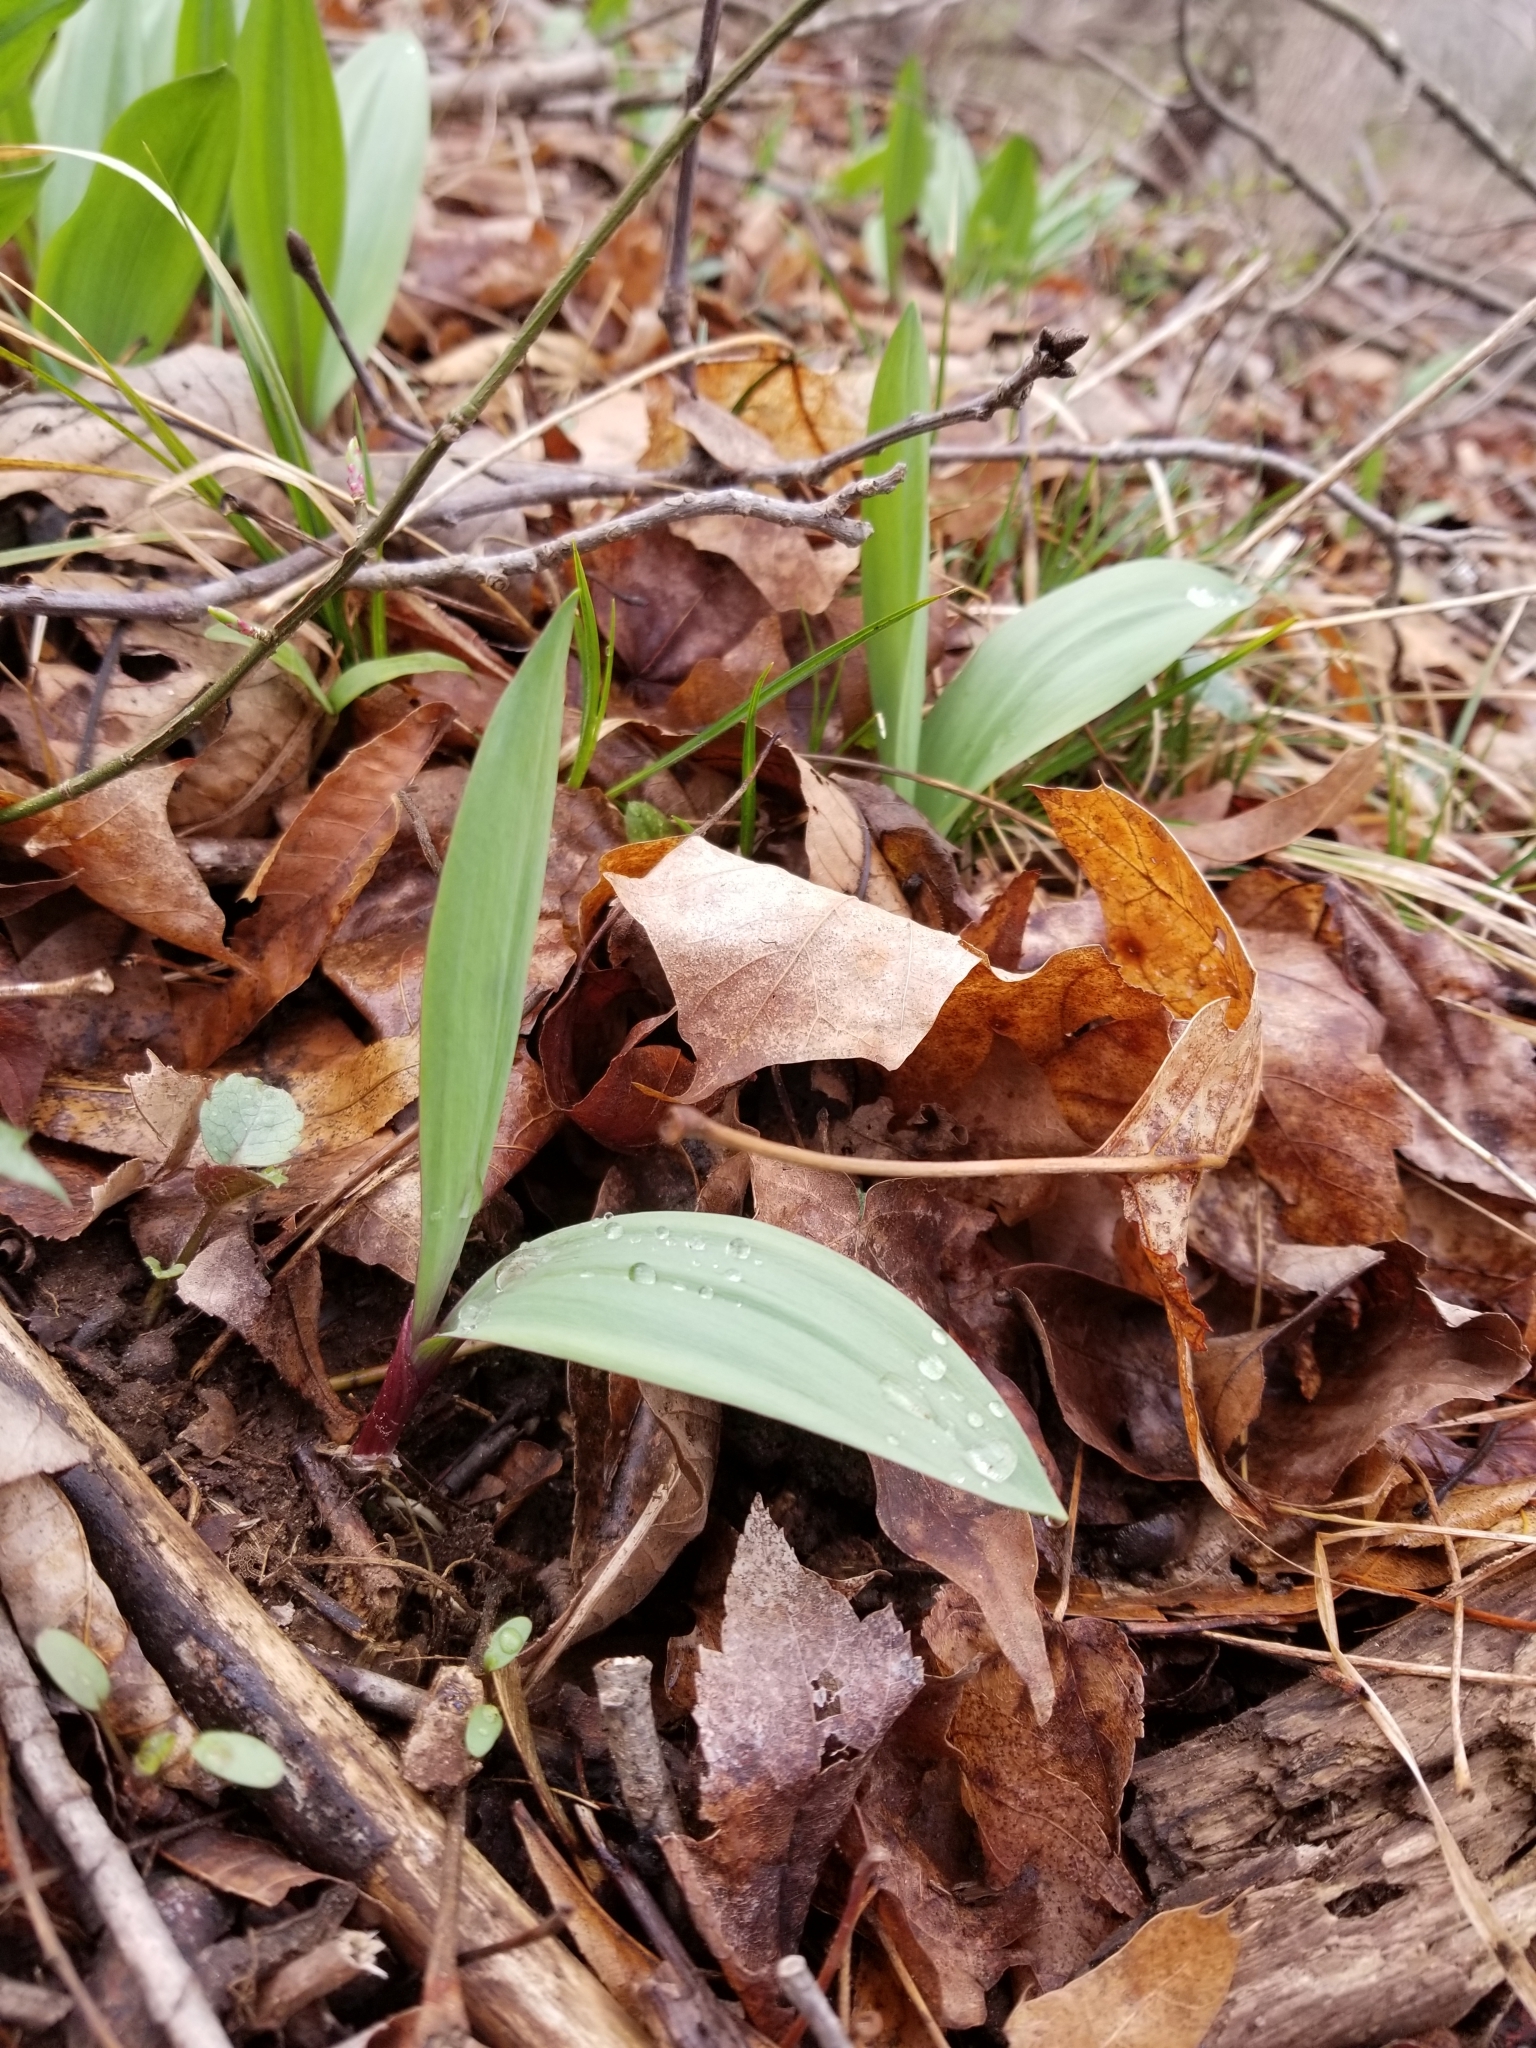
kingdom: Plantae
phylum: Tracheophyta
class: Liliopsida
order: Asparagales
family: Amaryllidaceae
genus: Allium
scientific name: Allium tricoccum
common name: Ramp
